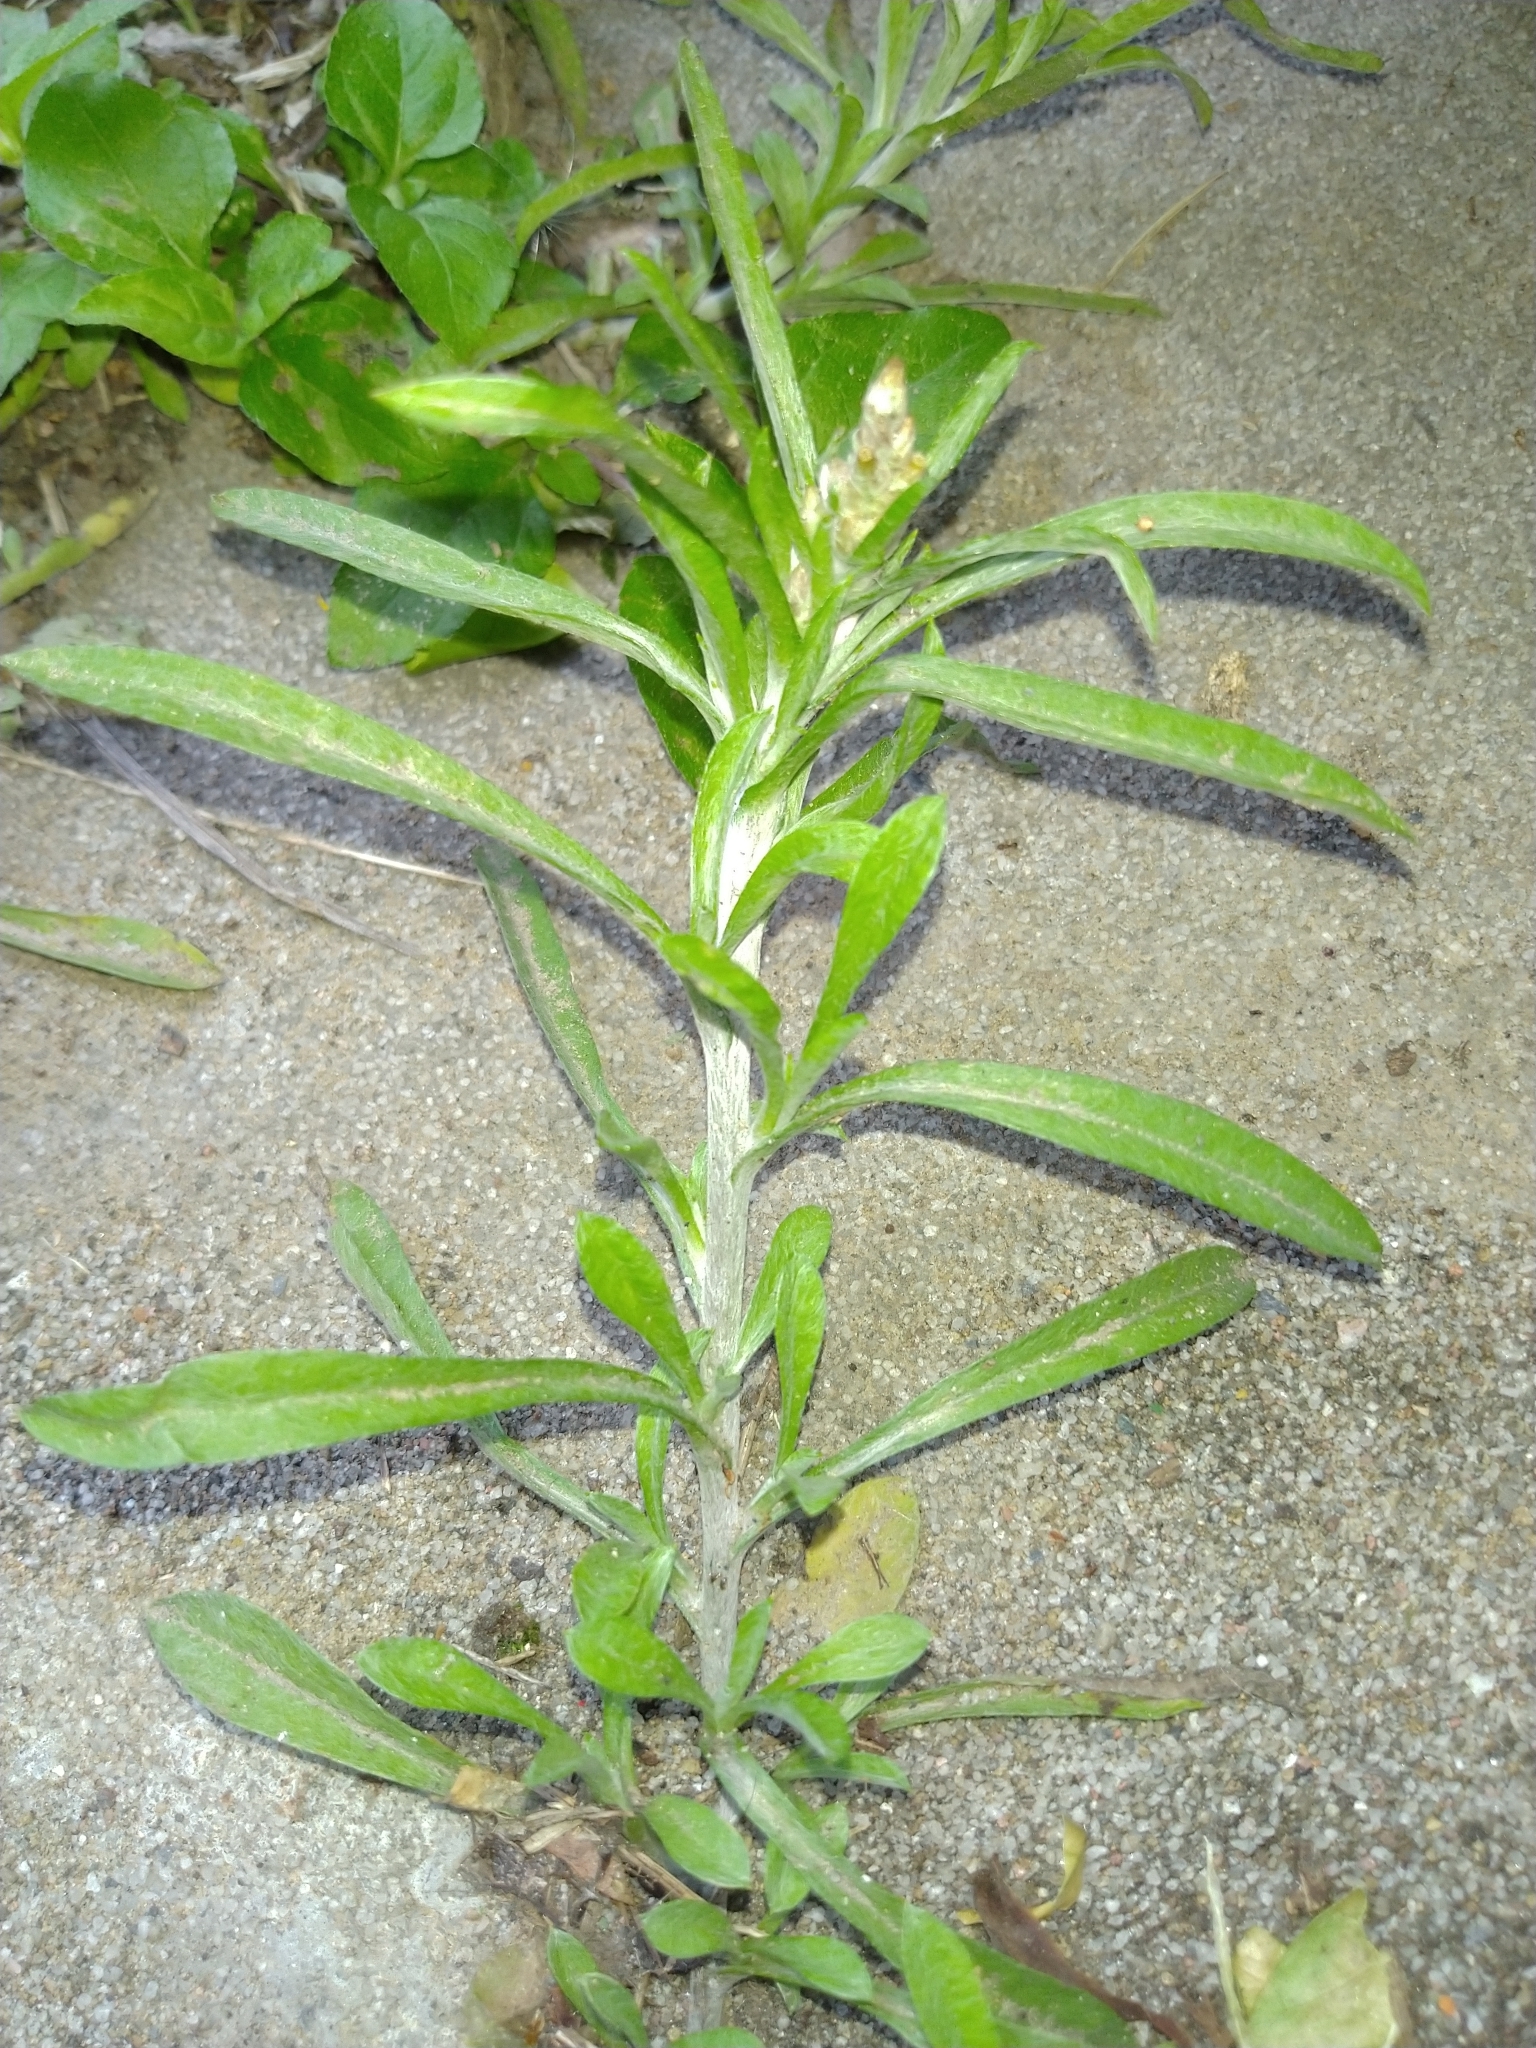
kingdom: Plantae
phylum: Tracheophyta
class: Magnoliopsida
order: Asterales
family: Asteraceae
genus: Gamochaeta
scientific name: Gamochaeta calviceps
